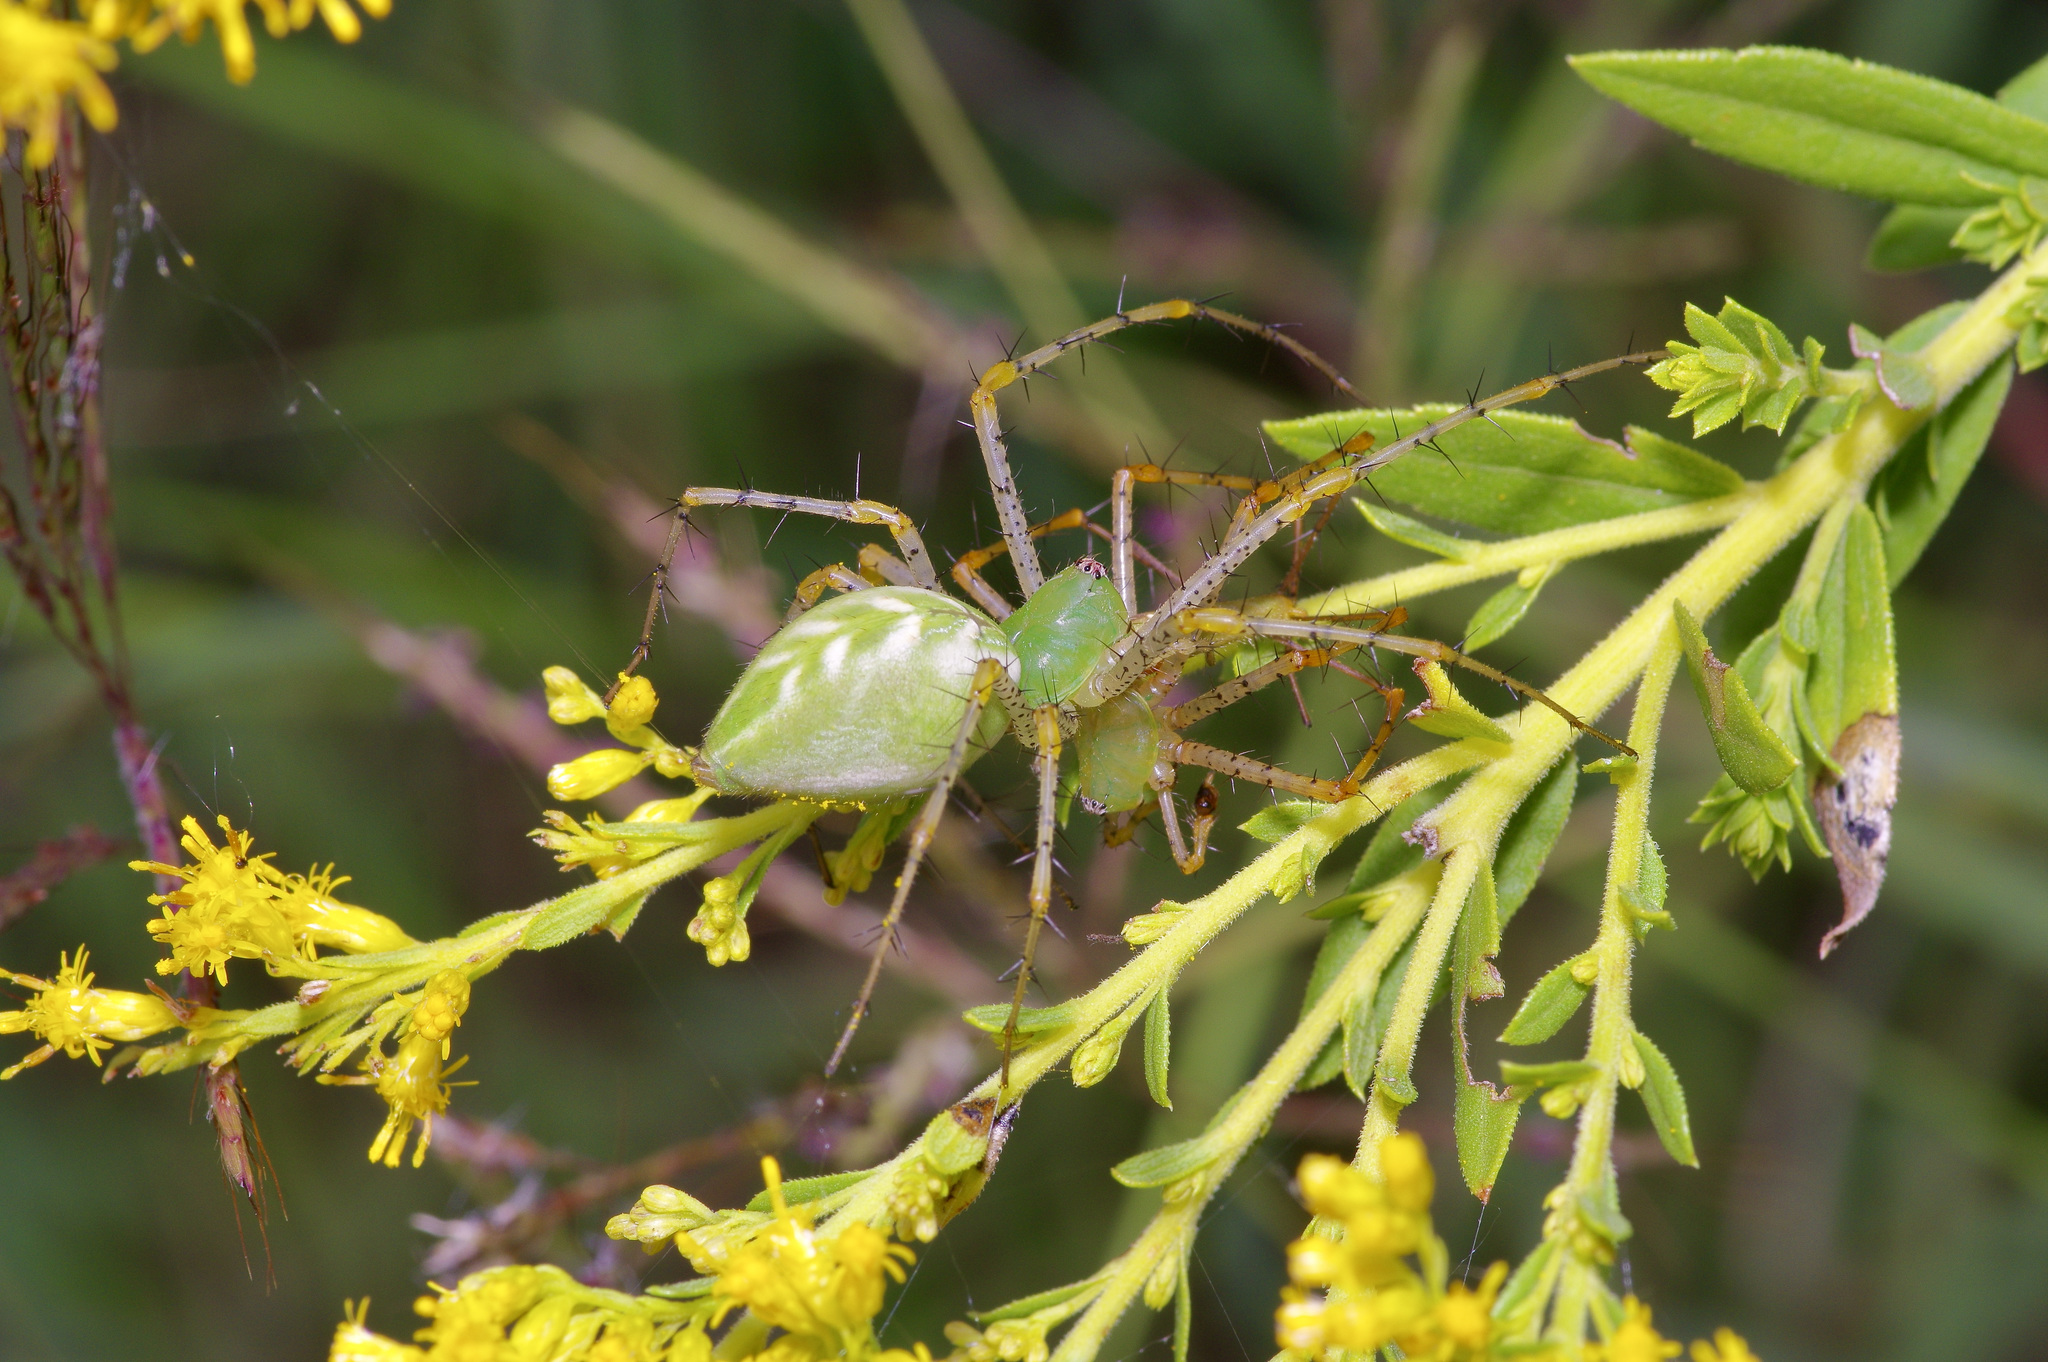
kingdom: Animalia
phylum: Arthropoda
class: Arachnida
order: Araneae
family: Oxyopidae
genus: Peucetia
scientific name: Peucetia viridans
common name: Lynx spiders
